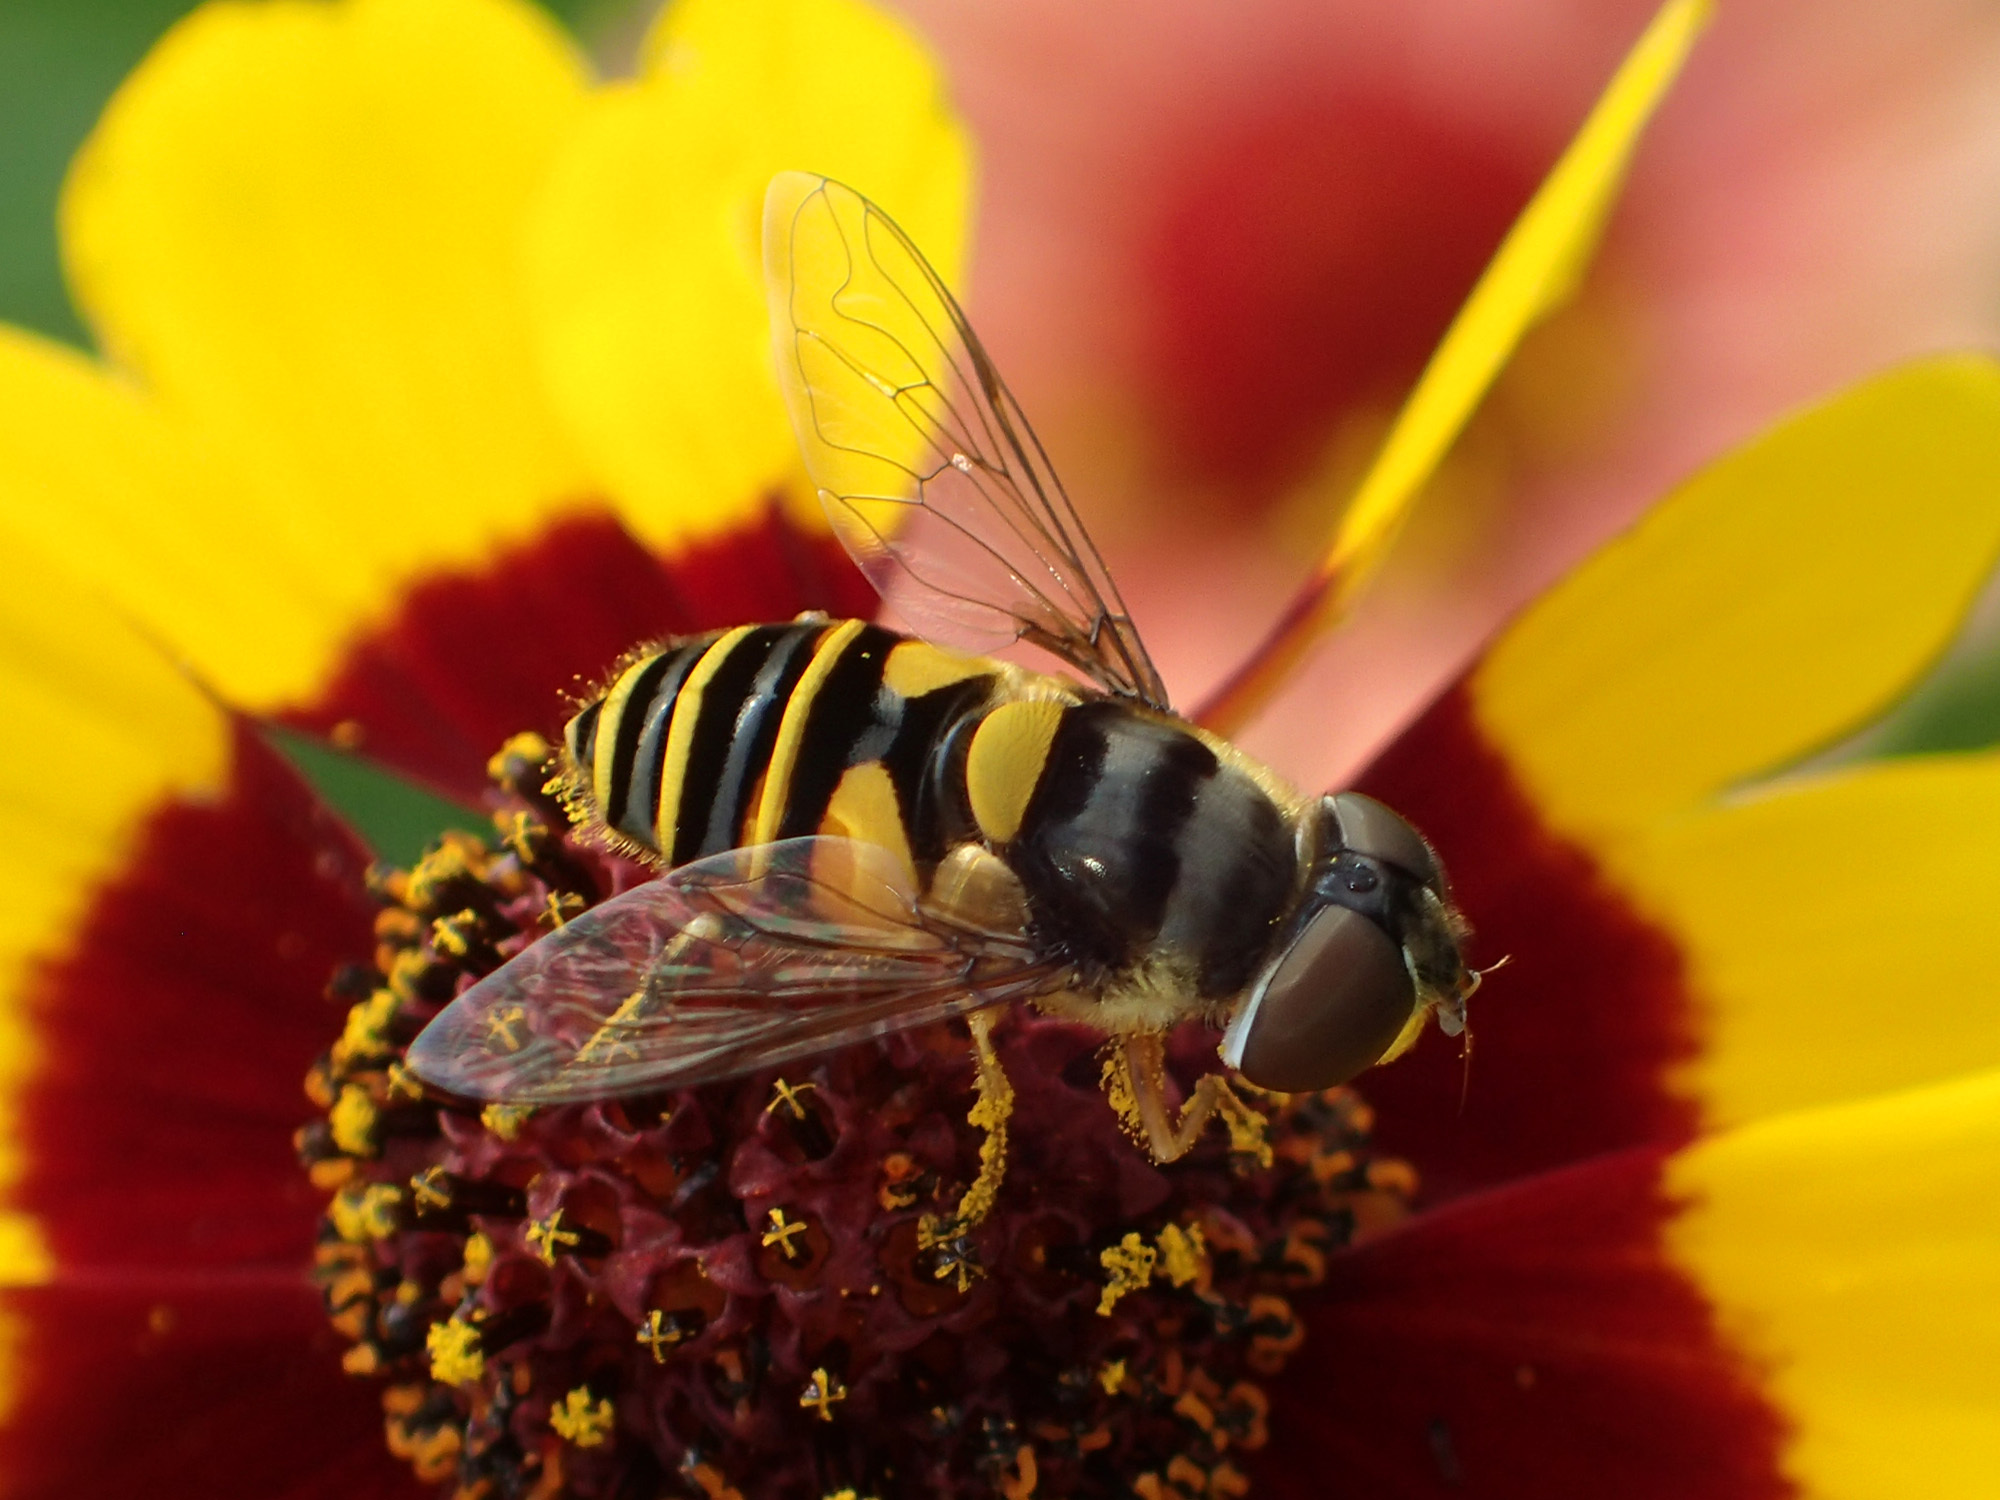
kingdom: Animalia
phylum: Arthropoda
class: Insecta
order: Diptera
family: Syrphidae
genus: Eristalis
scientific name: Eristalis transversa
